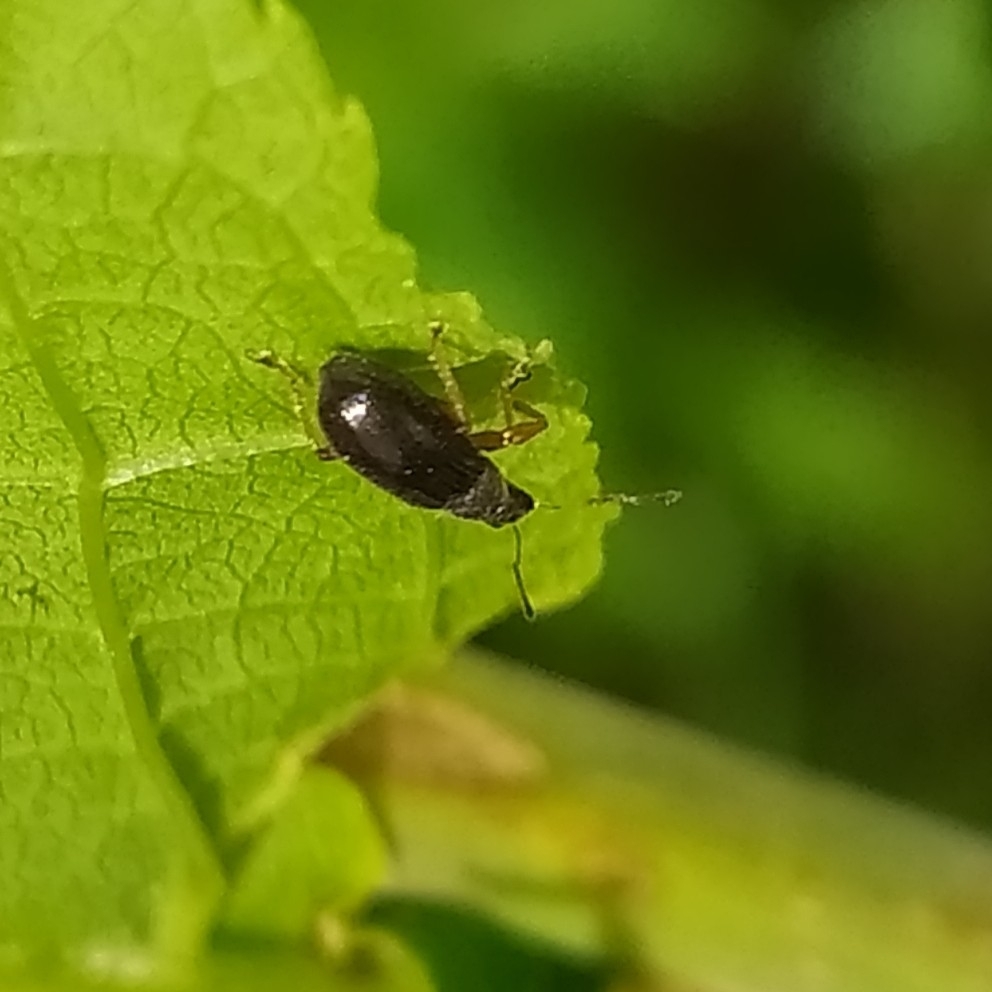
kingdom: Animalia
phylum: Arthropoda
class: Insecta
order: Coleoptera
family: Curculionidae
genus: Phyllobius
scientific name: Phyllobius oblongus
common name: Brown leaf weevil
